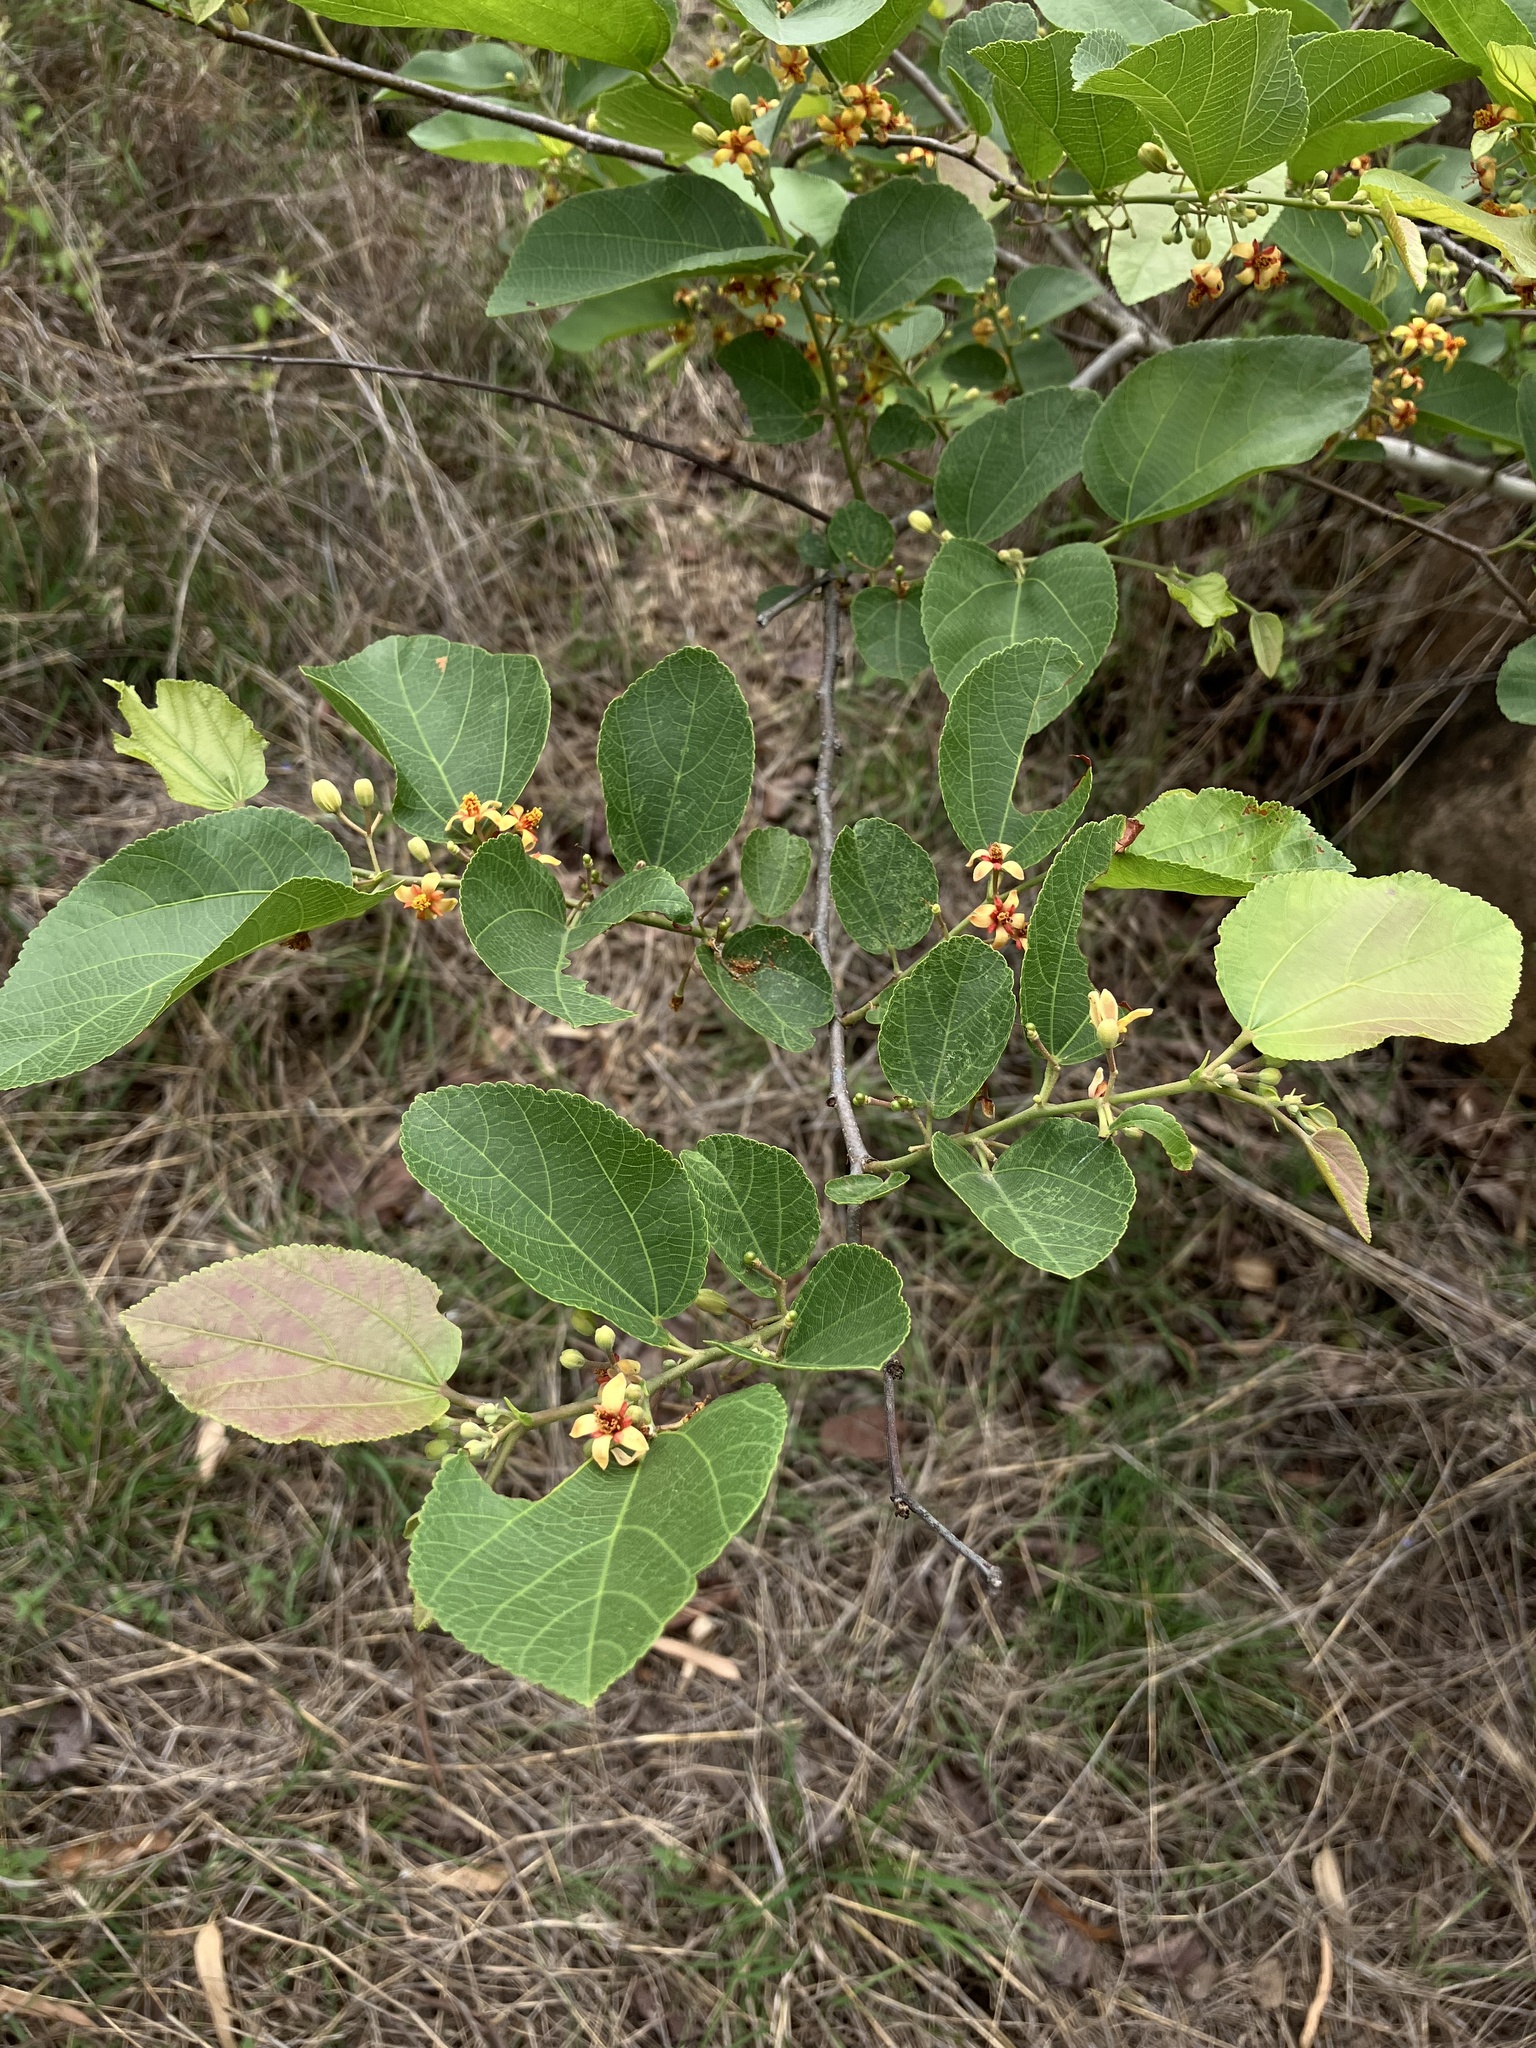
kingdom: Plantae
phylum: Tracheophyta
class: Magnoliopsida
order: Malvales
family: Malvaceae
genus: Grewia
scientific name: Grewia tiliifolia
